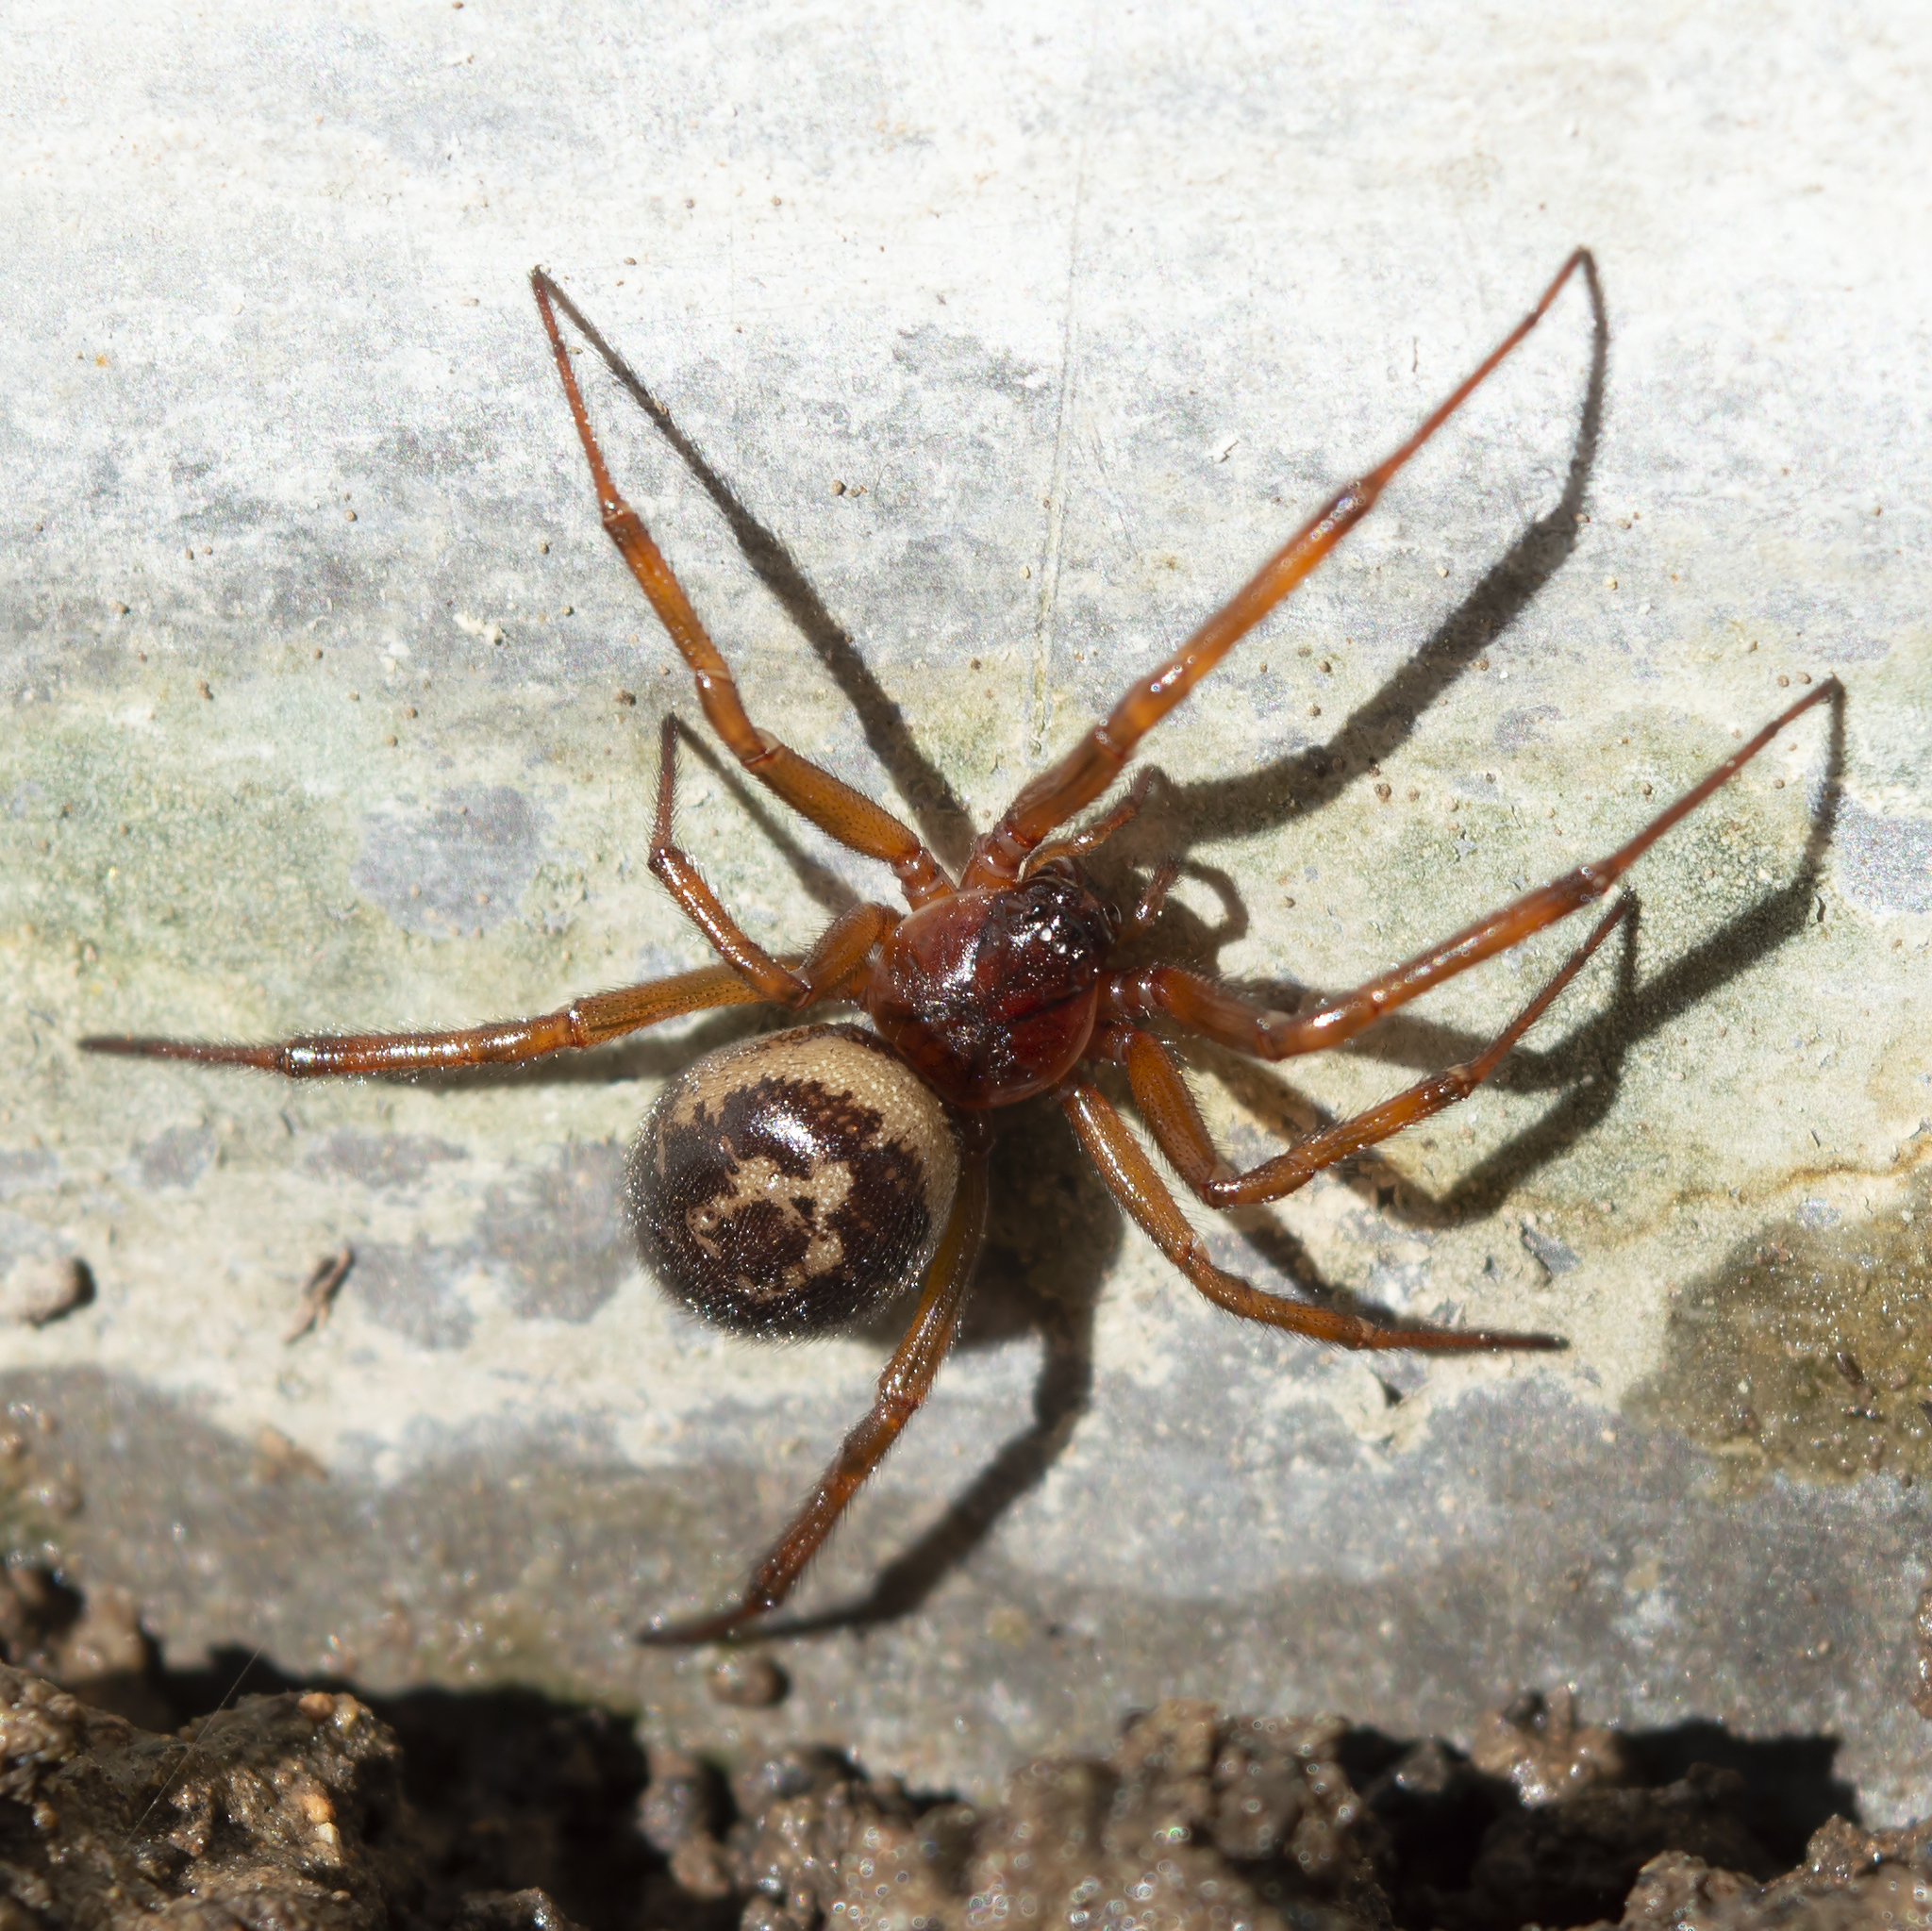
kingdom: Animalia
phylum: Arthropoda
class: Arachnida
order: Araneae
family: Theridiidae
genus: Steatoda
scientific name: Steatoda nobilis
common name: Cobweb weaver
